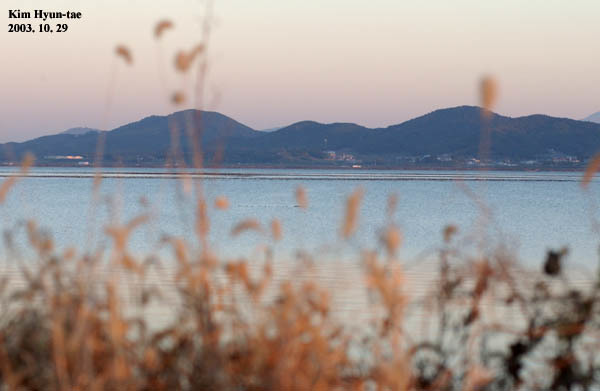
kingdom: Animalia
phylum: Chordata
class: Aves
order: Anseriformes
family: Anatidae
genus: Sibirionetta
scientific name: Sibirionetta formosa
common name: Baikal teal
